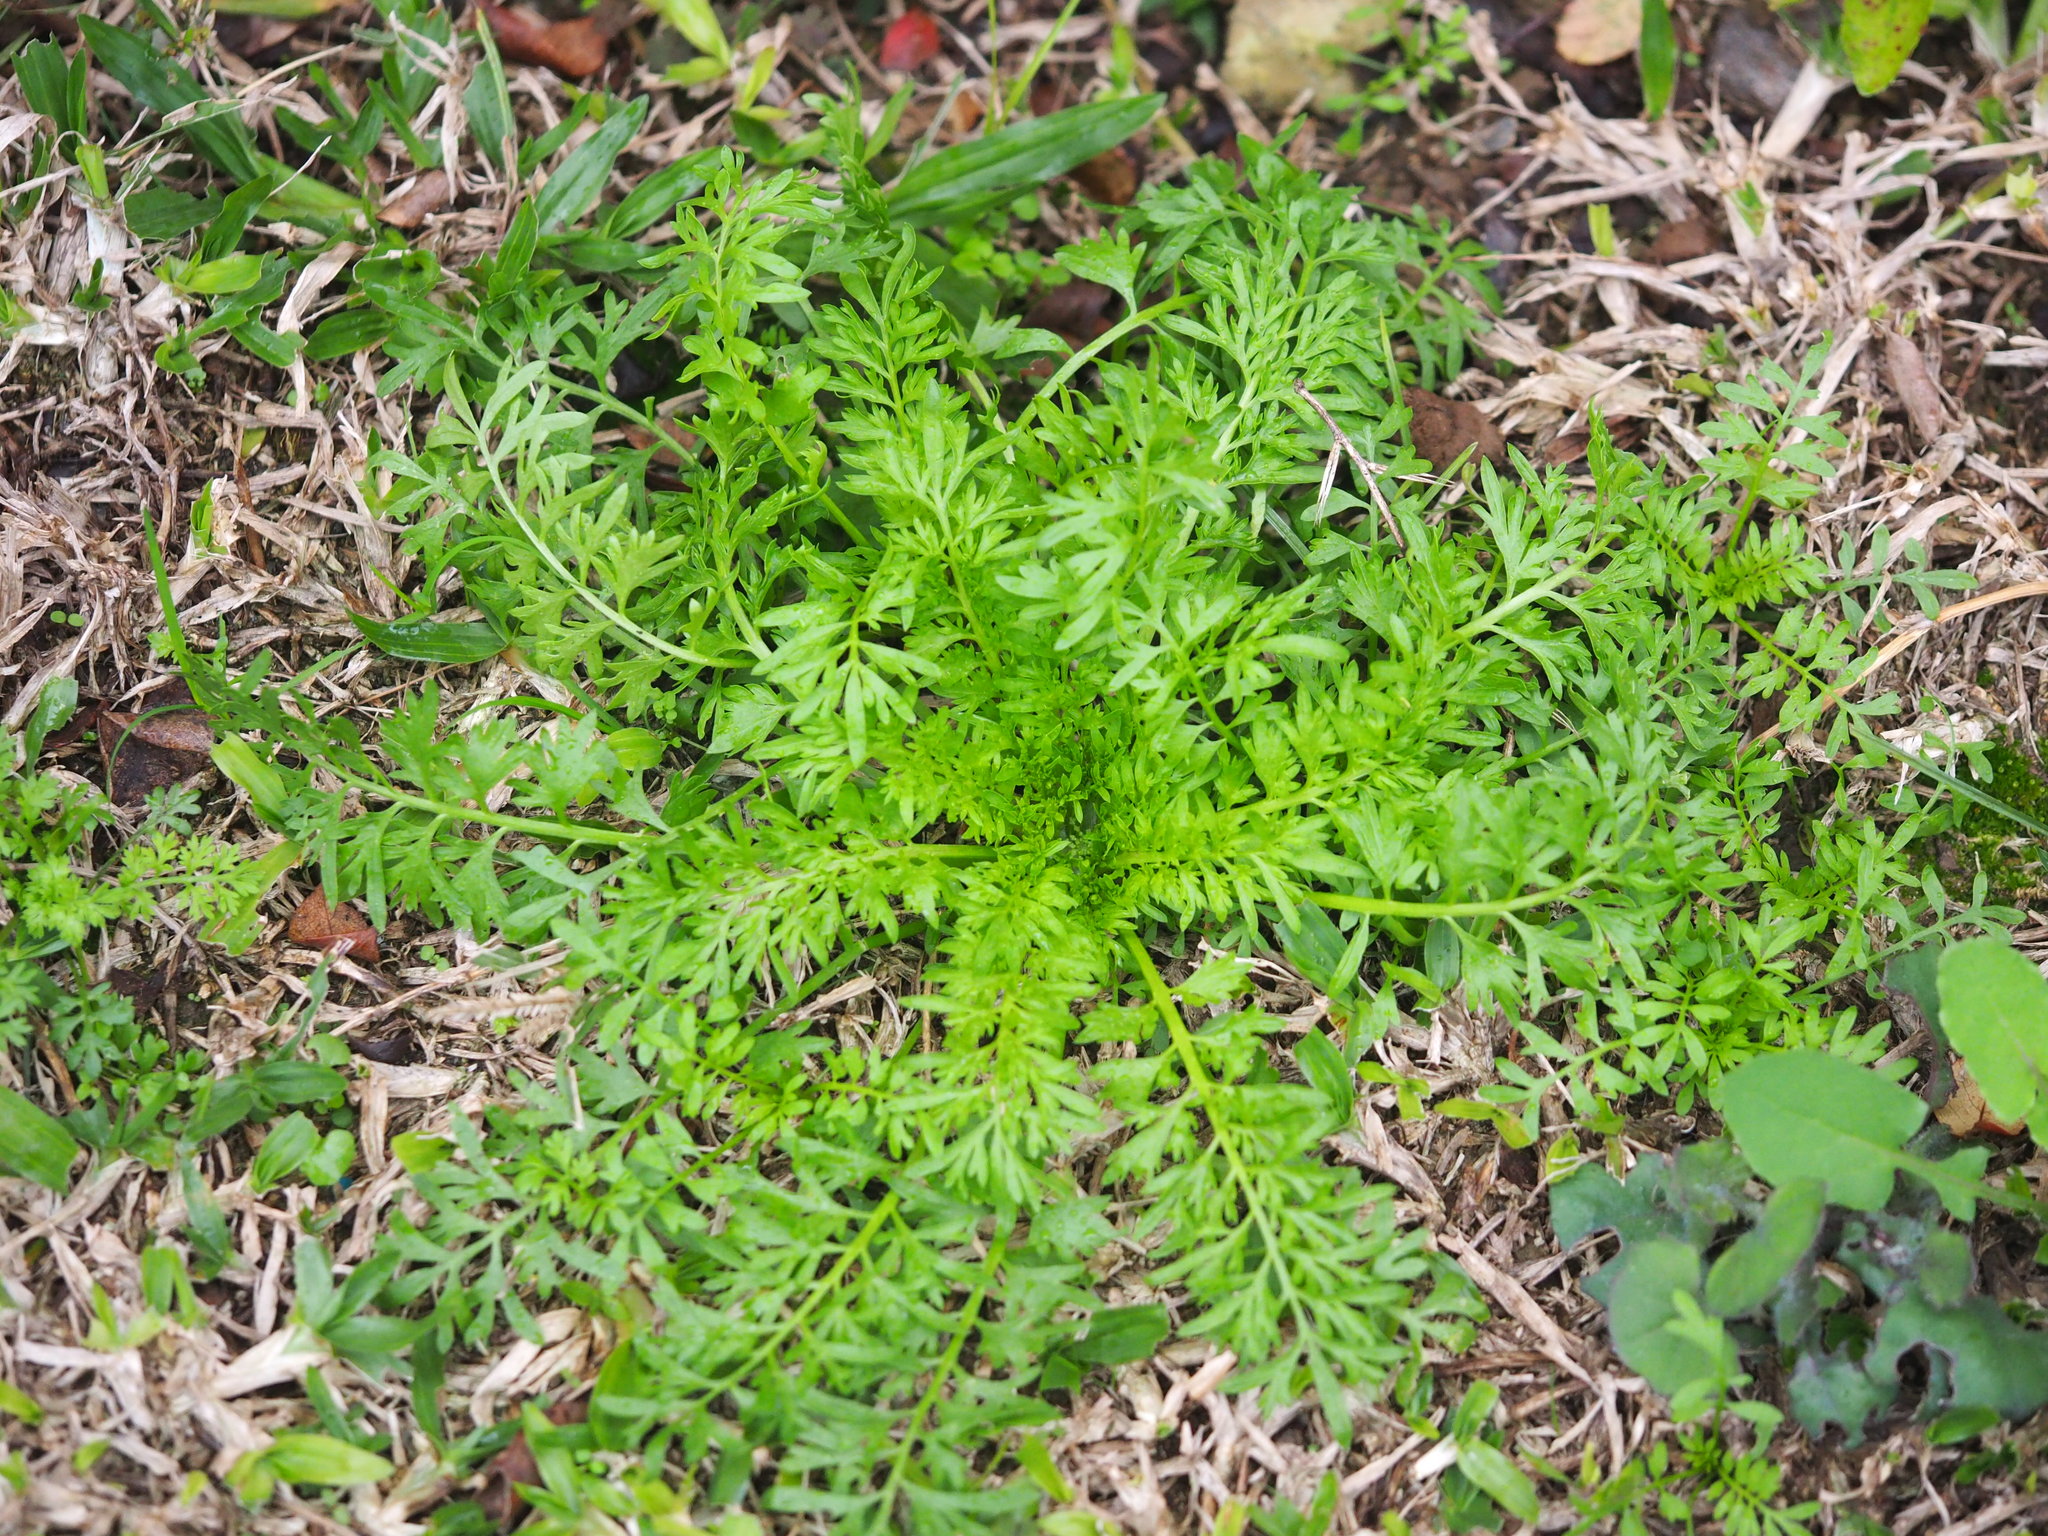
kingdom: Plantae
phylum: Tracheophyta
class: Magnoliopsida
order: Brassicales
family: Brassicaceae
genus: Lepidium
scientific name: Lepidium didymum
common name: Lesser swinecress
